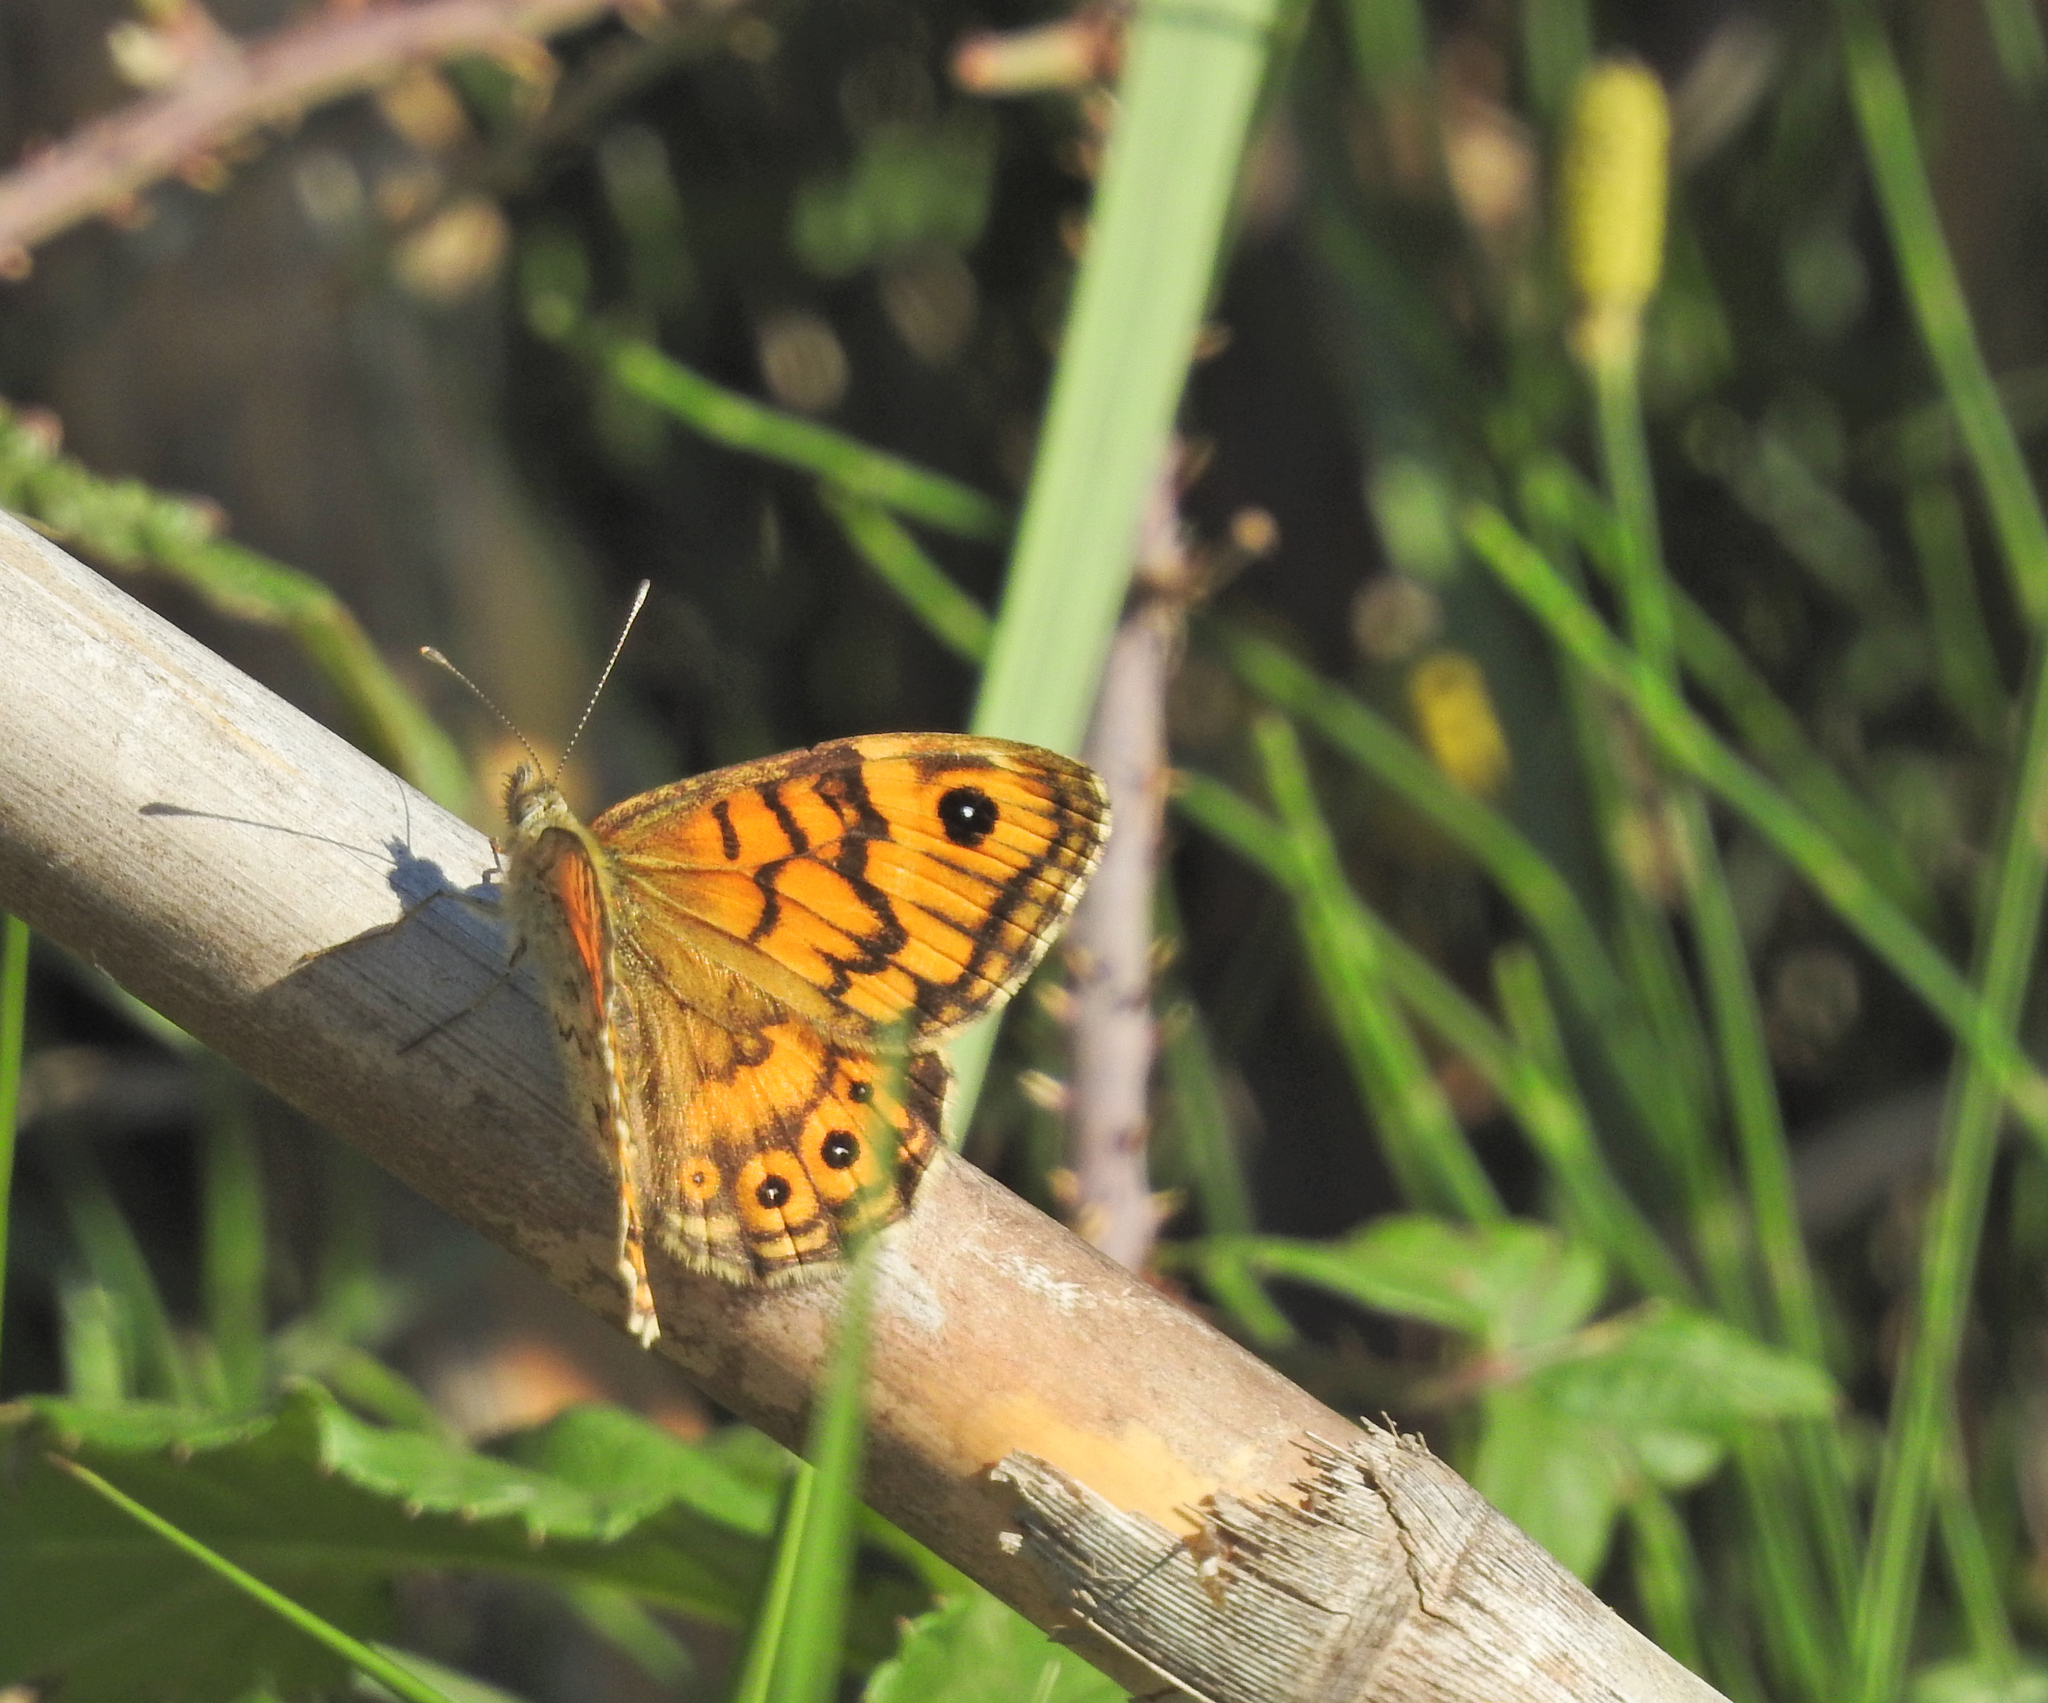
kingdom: Animalia
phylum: Arthropoda
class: Insecta
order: Lepidoptera
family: Nymphalidae
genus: Pararge
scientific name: Pararge Lasiommata megera
